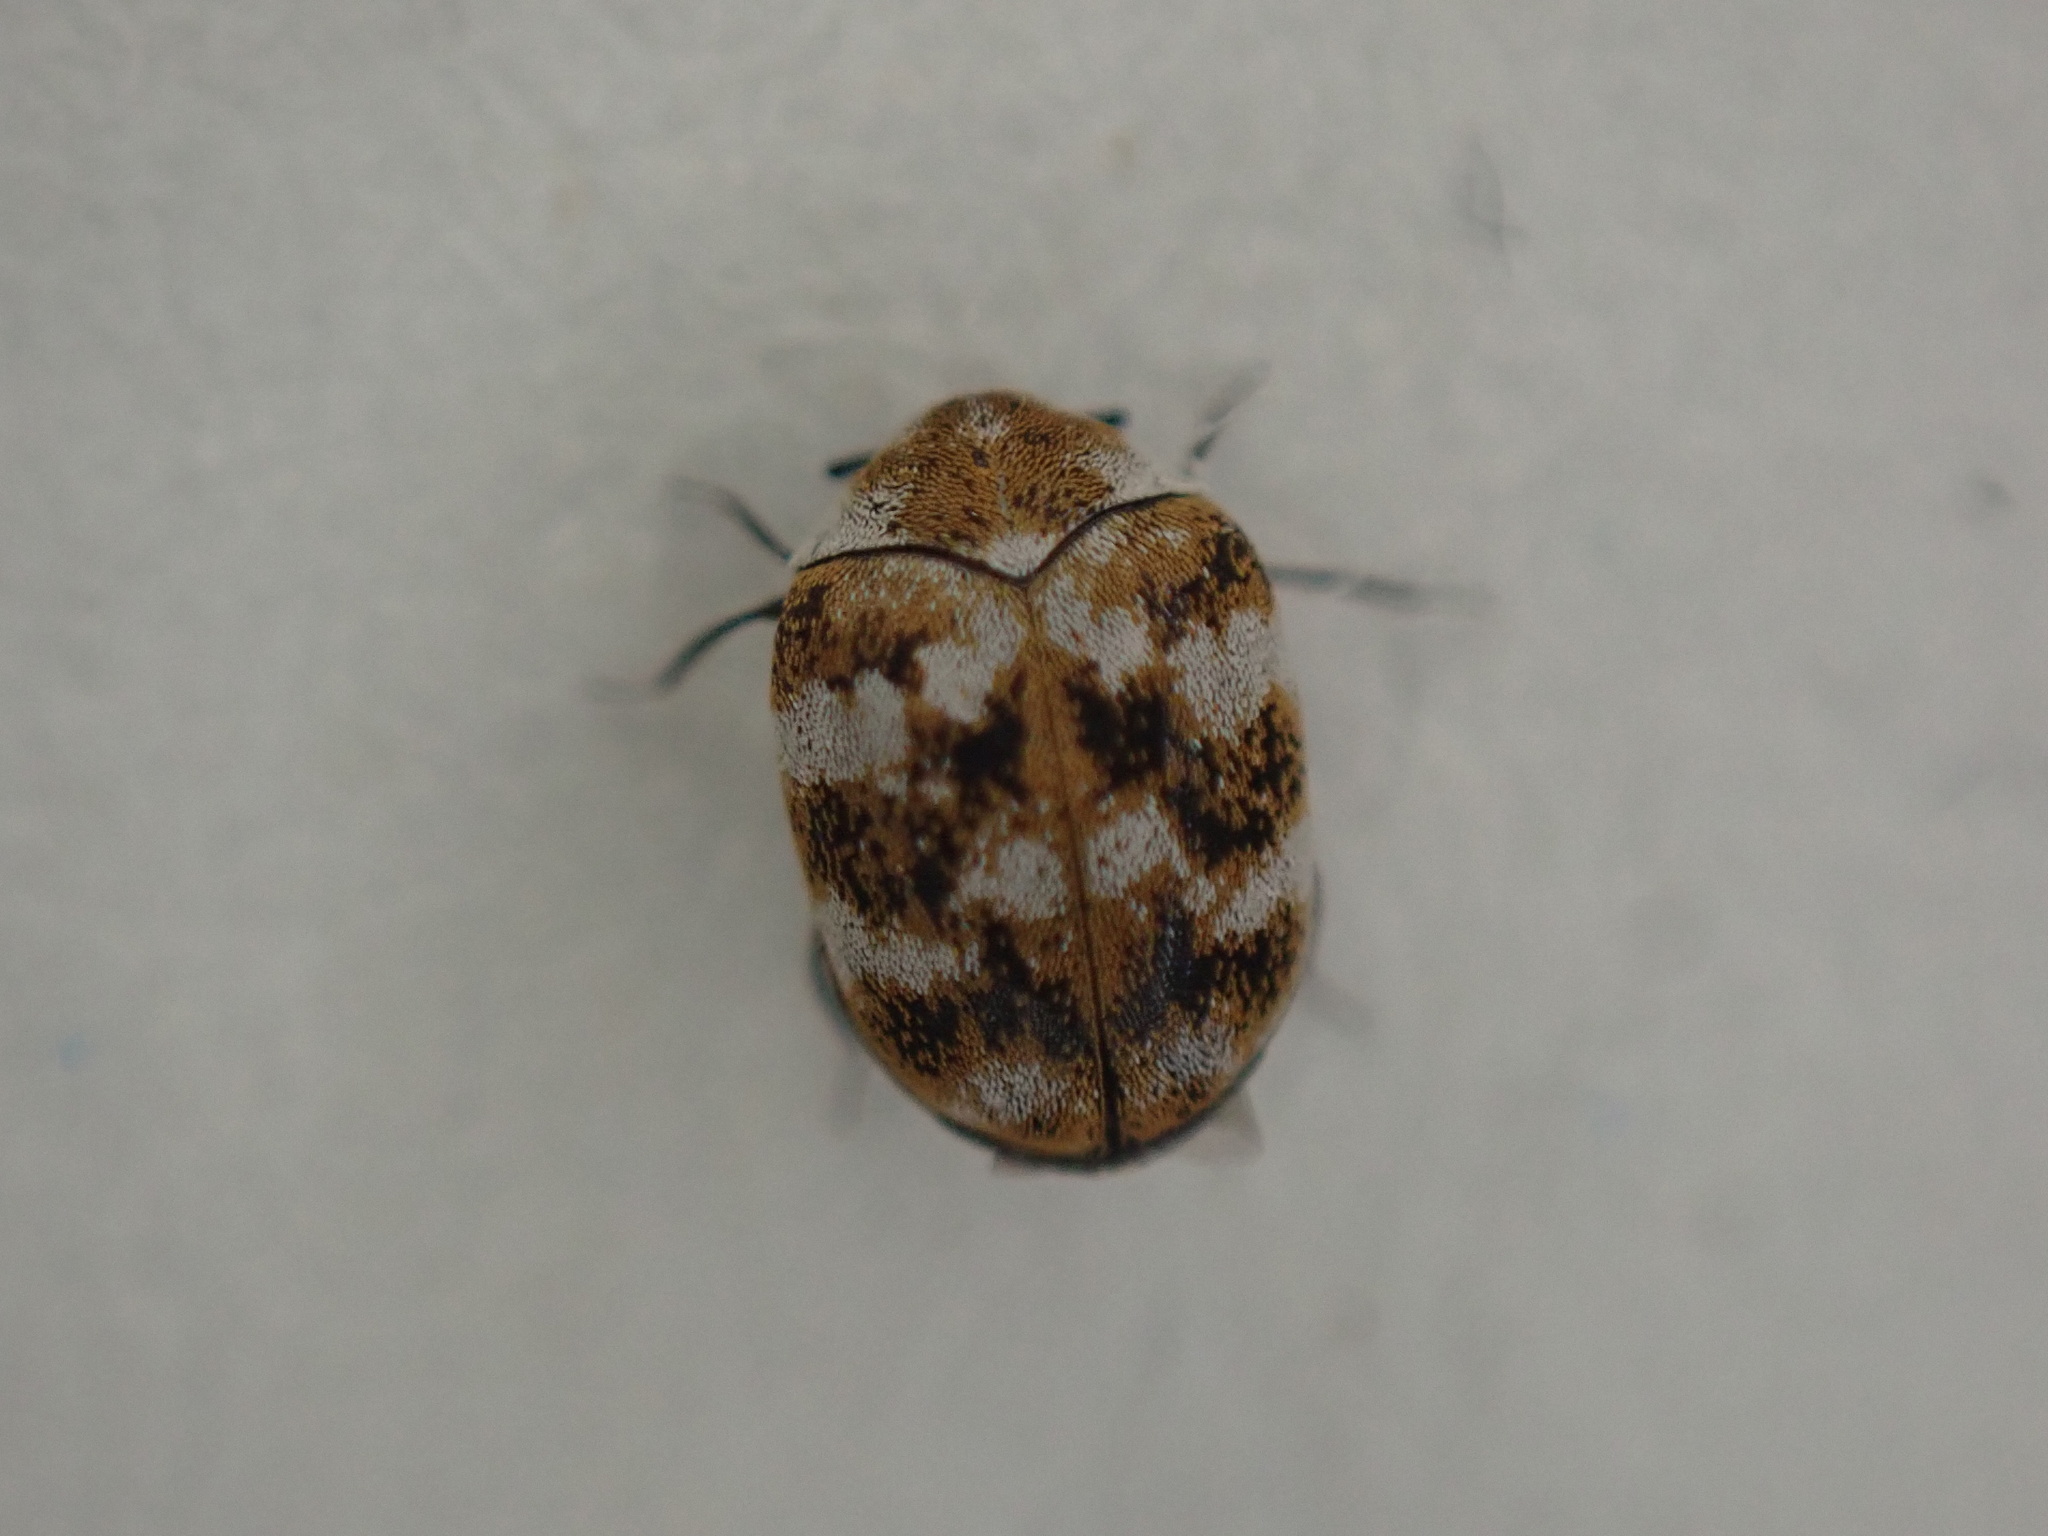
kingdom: Animalia
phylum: Arthropoda
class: Insecta
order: Coleoptera
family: Dermestidae
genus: Anthrenus
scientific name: Anthrenus verbasci
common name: Varied carpet beetle
